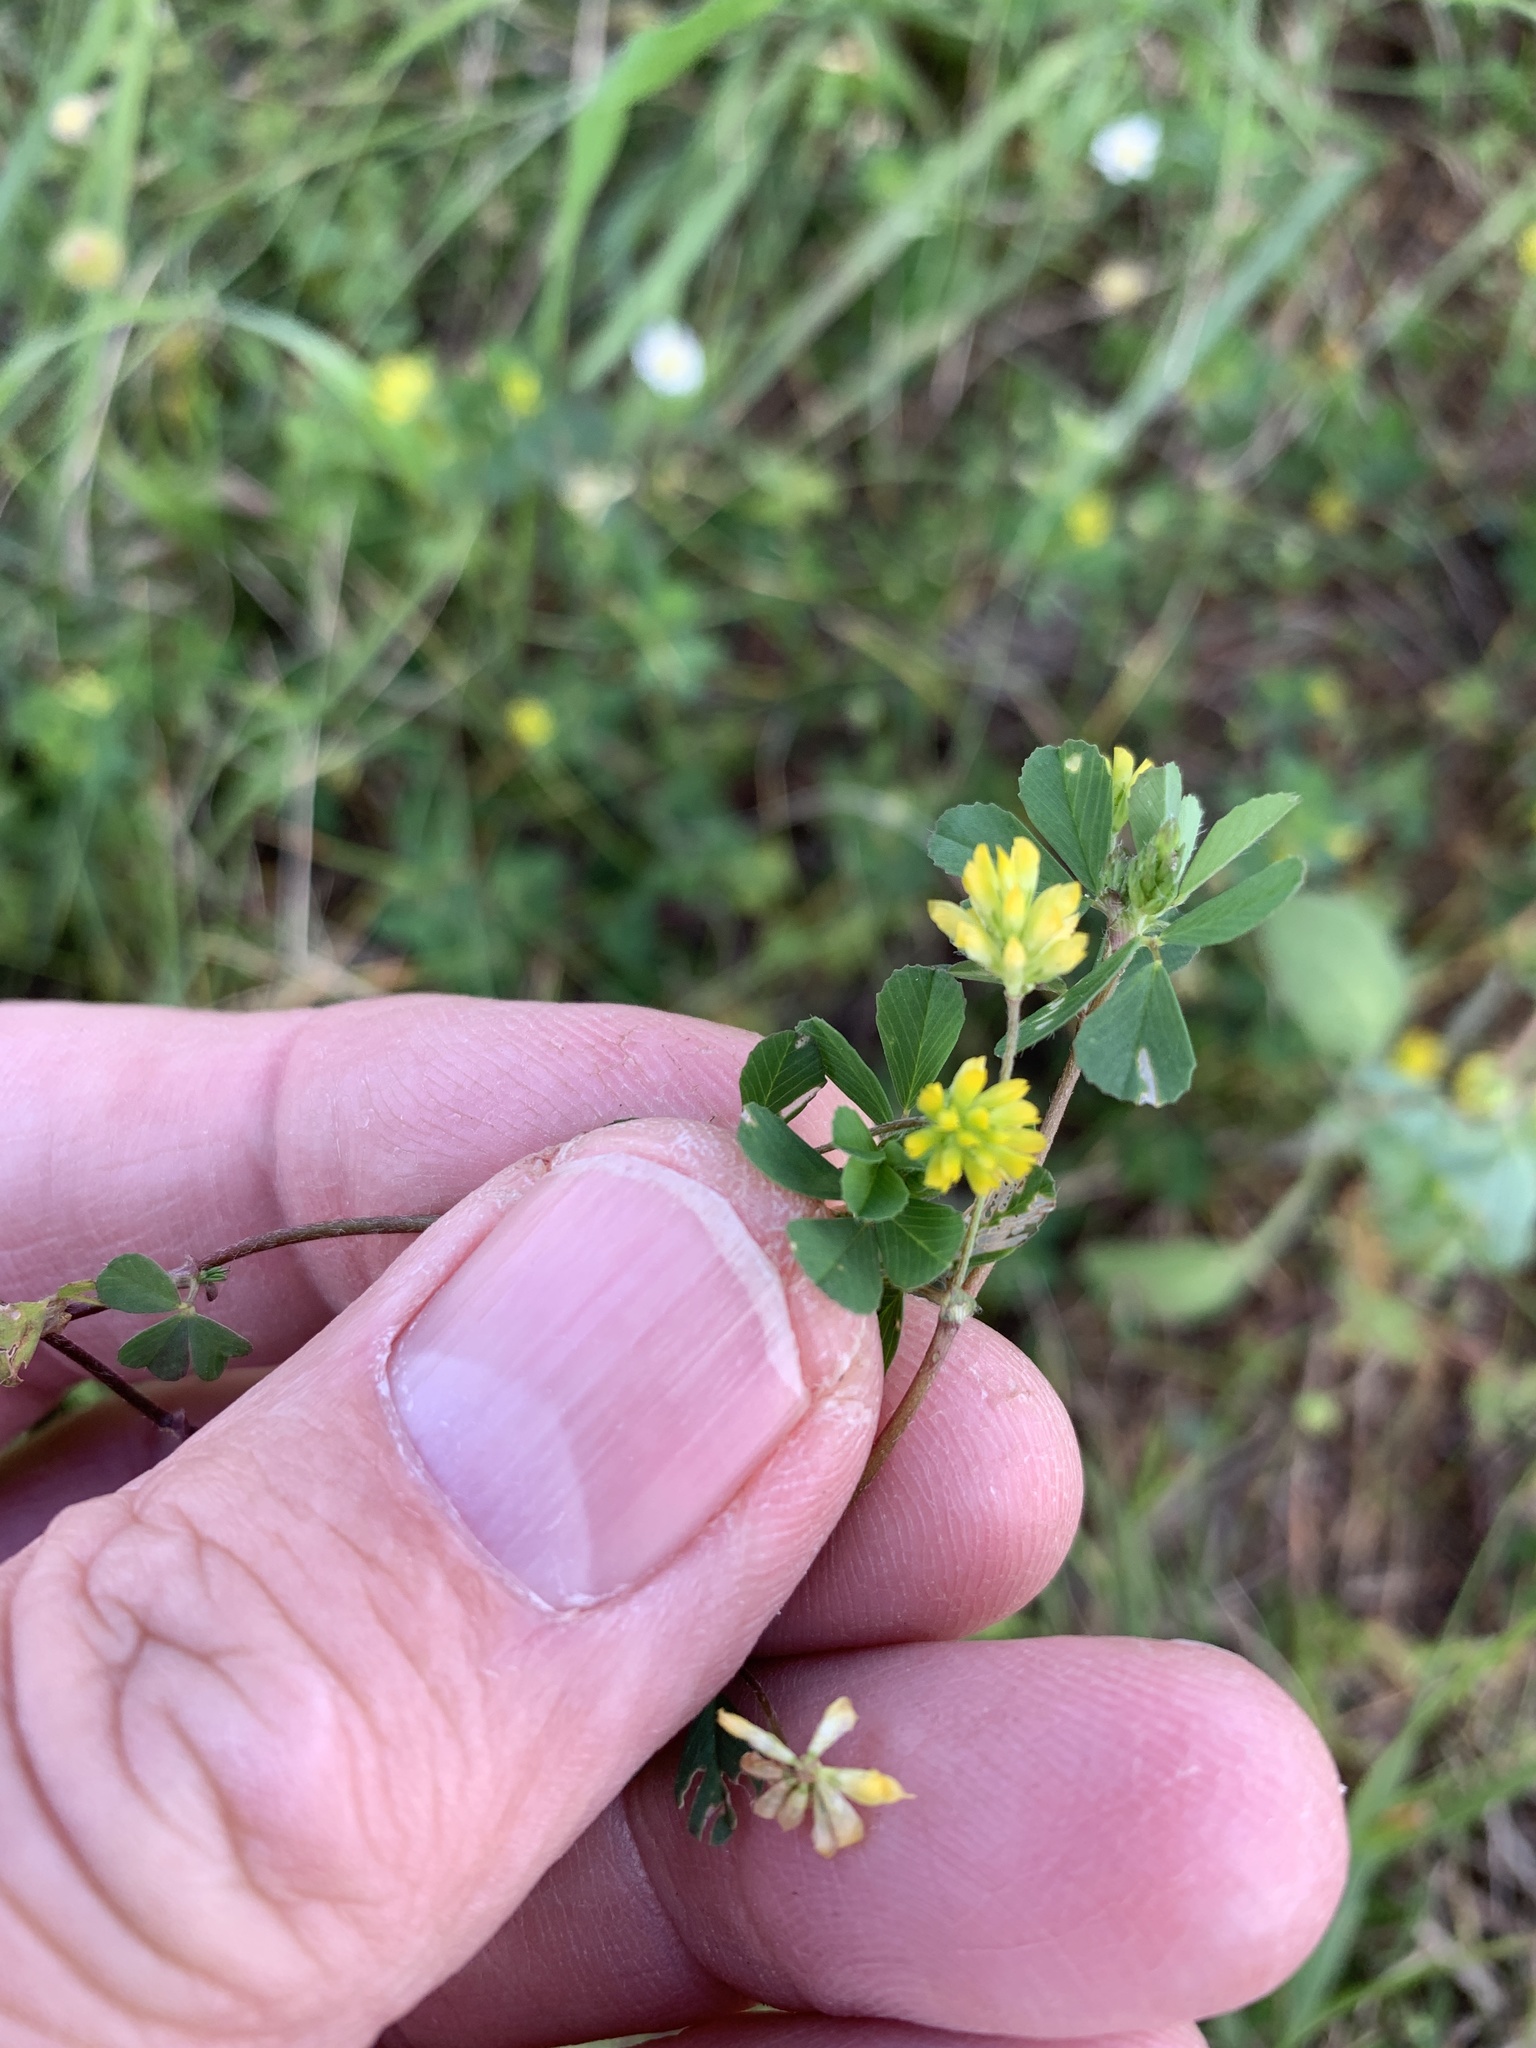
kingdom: Plantae
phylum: Tracheophyta
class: Magnoliopsida
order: Fabales
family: Fabaceae
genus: Trifolium
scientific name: Trifolium dubium
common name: Suckling clover
